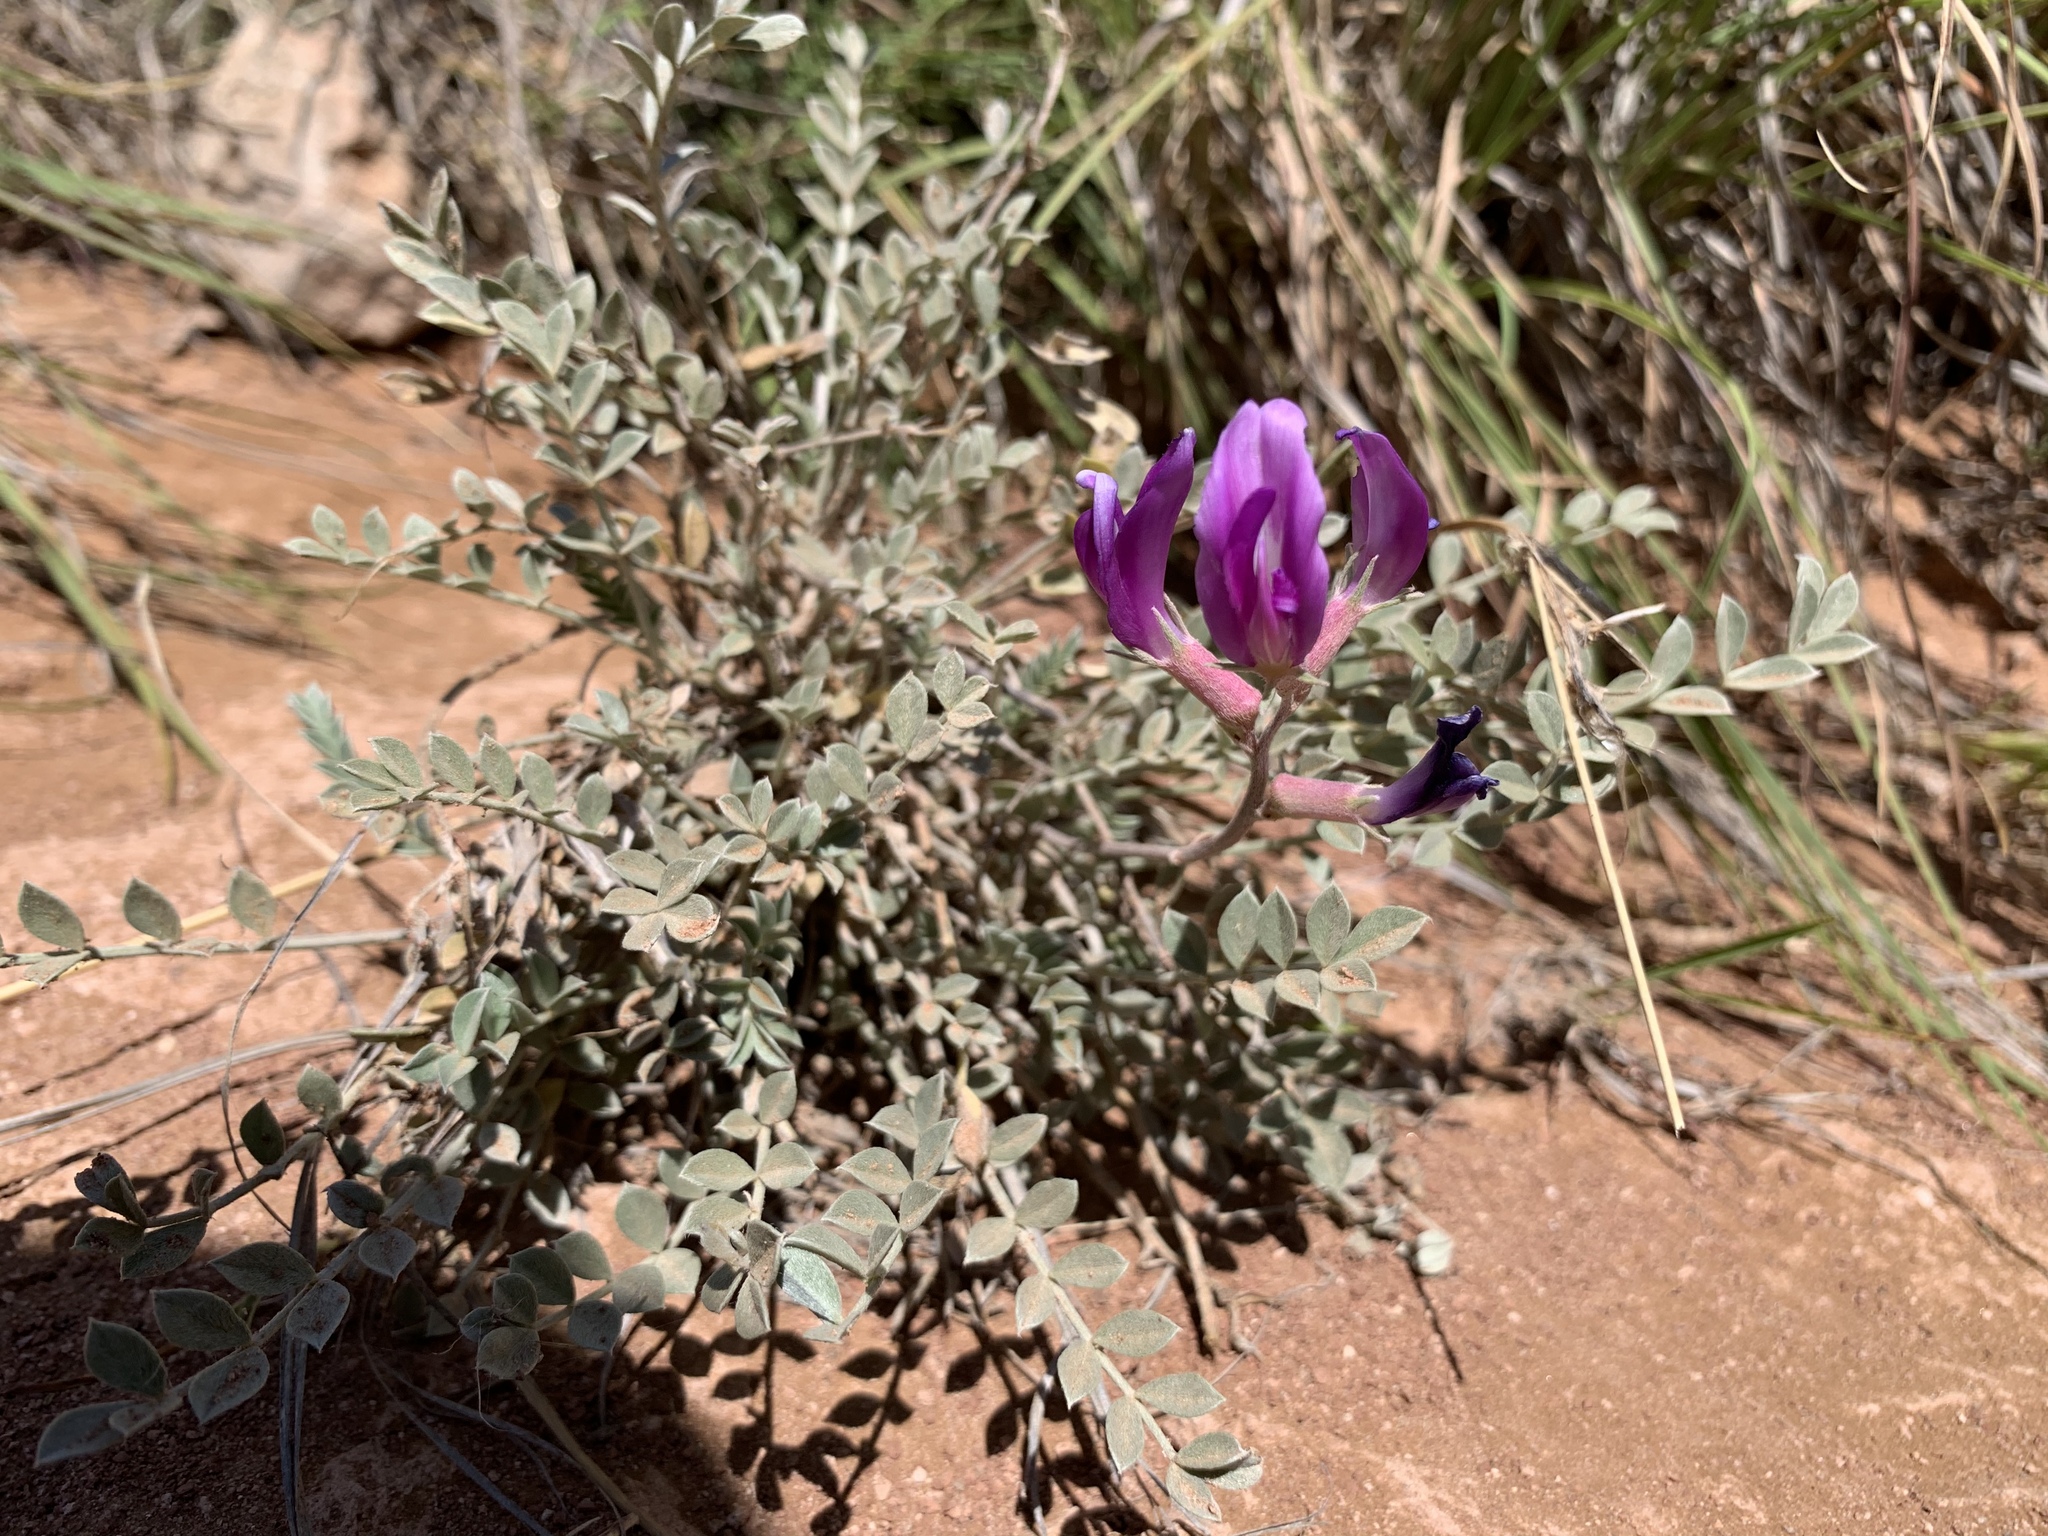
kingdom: Plantae
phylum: Tracheophyta
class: Magnoliopsida
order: Fabales
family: Fabaceae
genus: Astragalus
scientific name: Astragalus missouriensis
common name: Missouri milk-vetch
